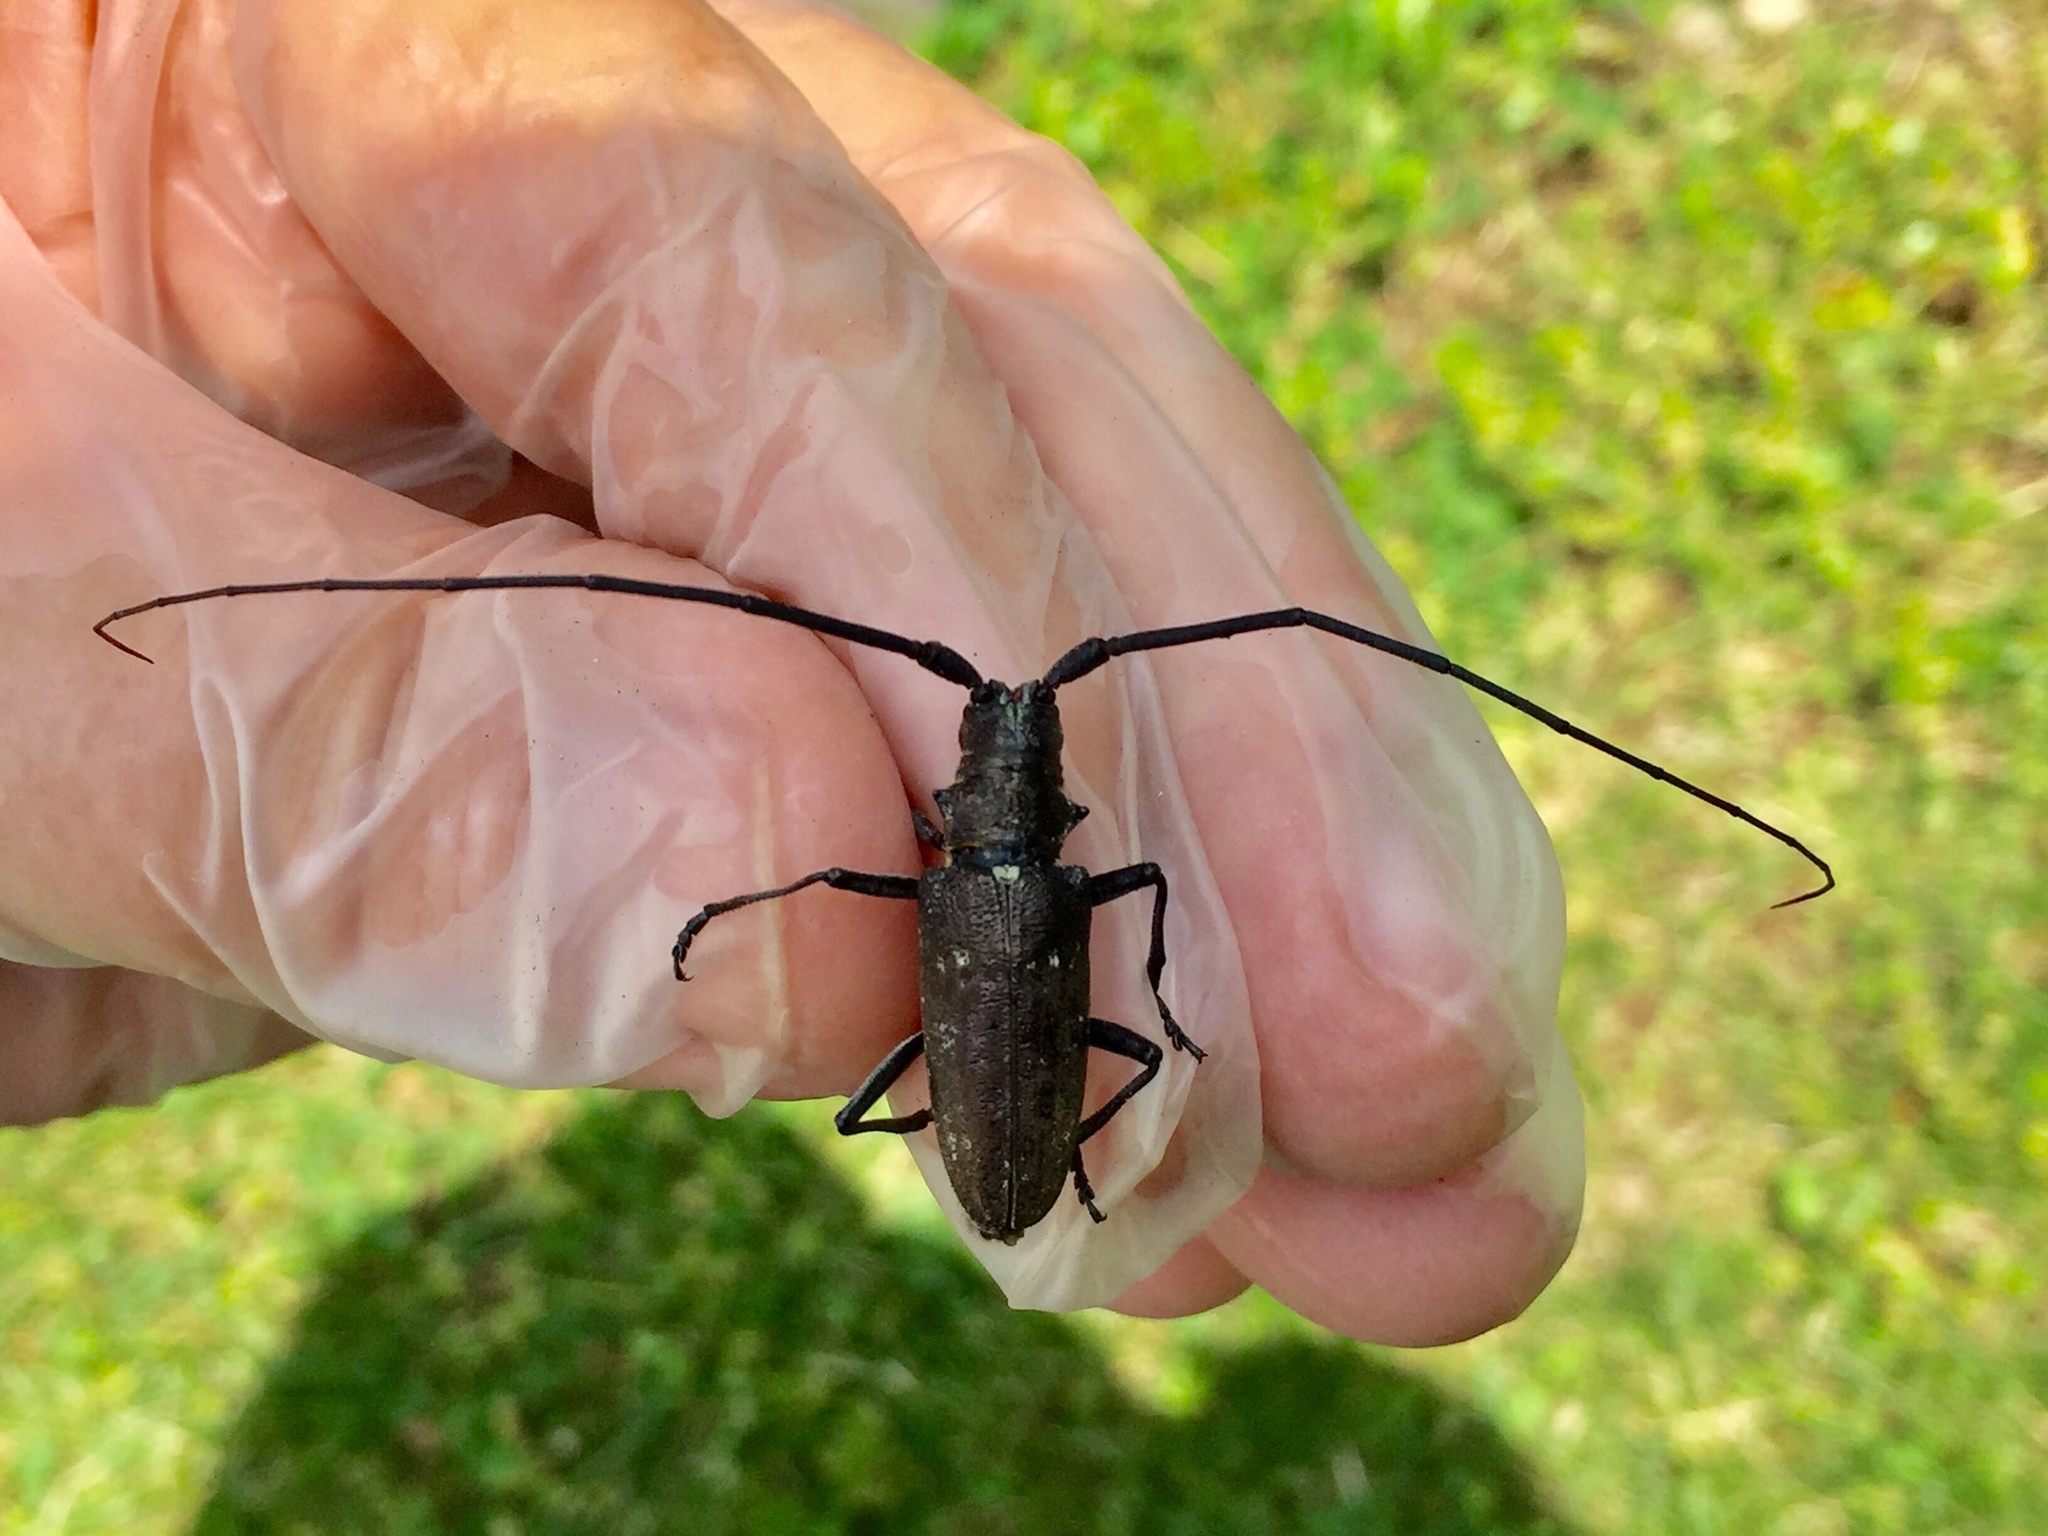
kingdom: Animalia
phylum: Arthropoda
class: Insecta
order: Coleoptera
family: Cerambycidae
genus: Monochamus
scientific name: Monochamus scutellatus
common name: White-spotted sawyer beetle
